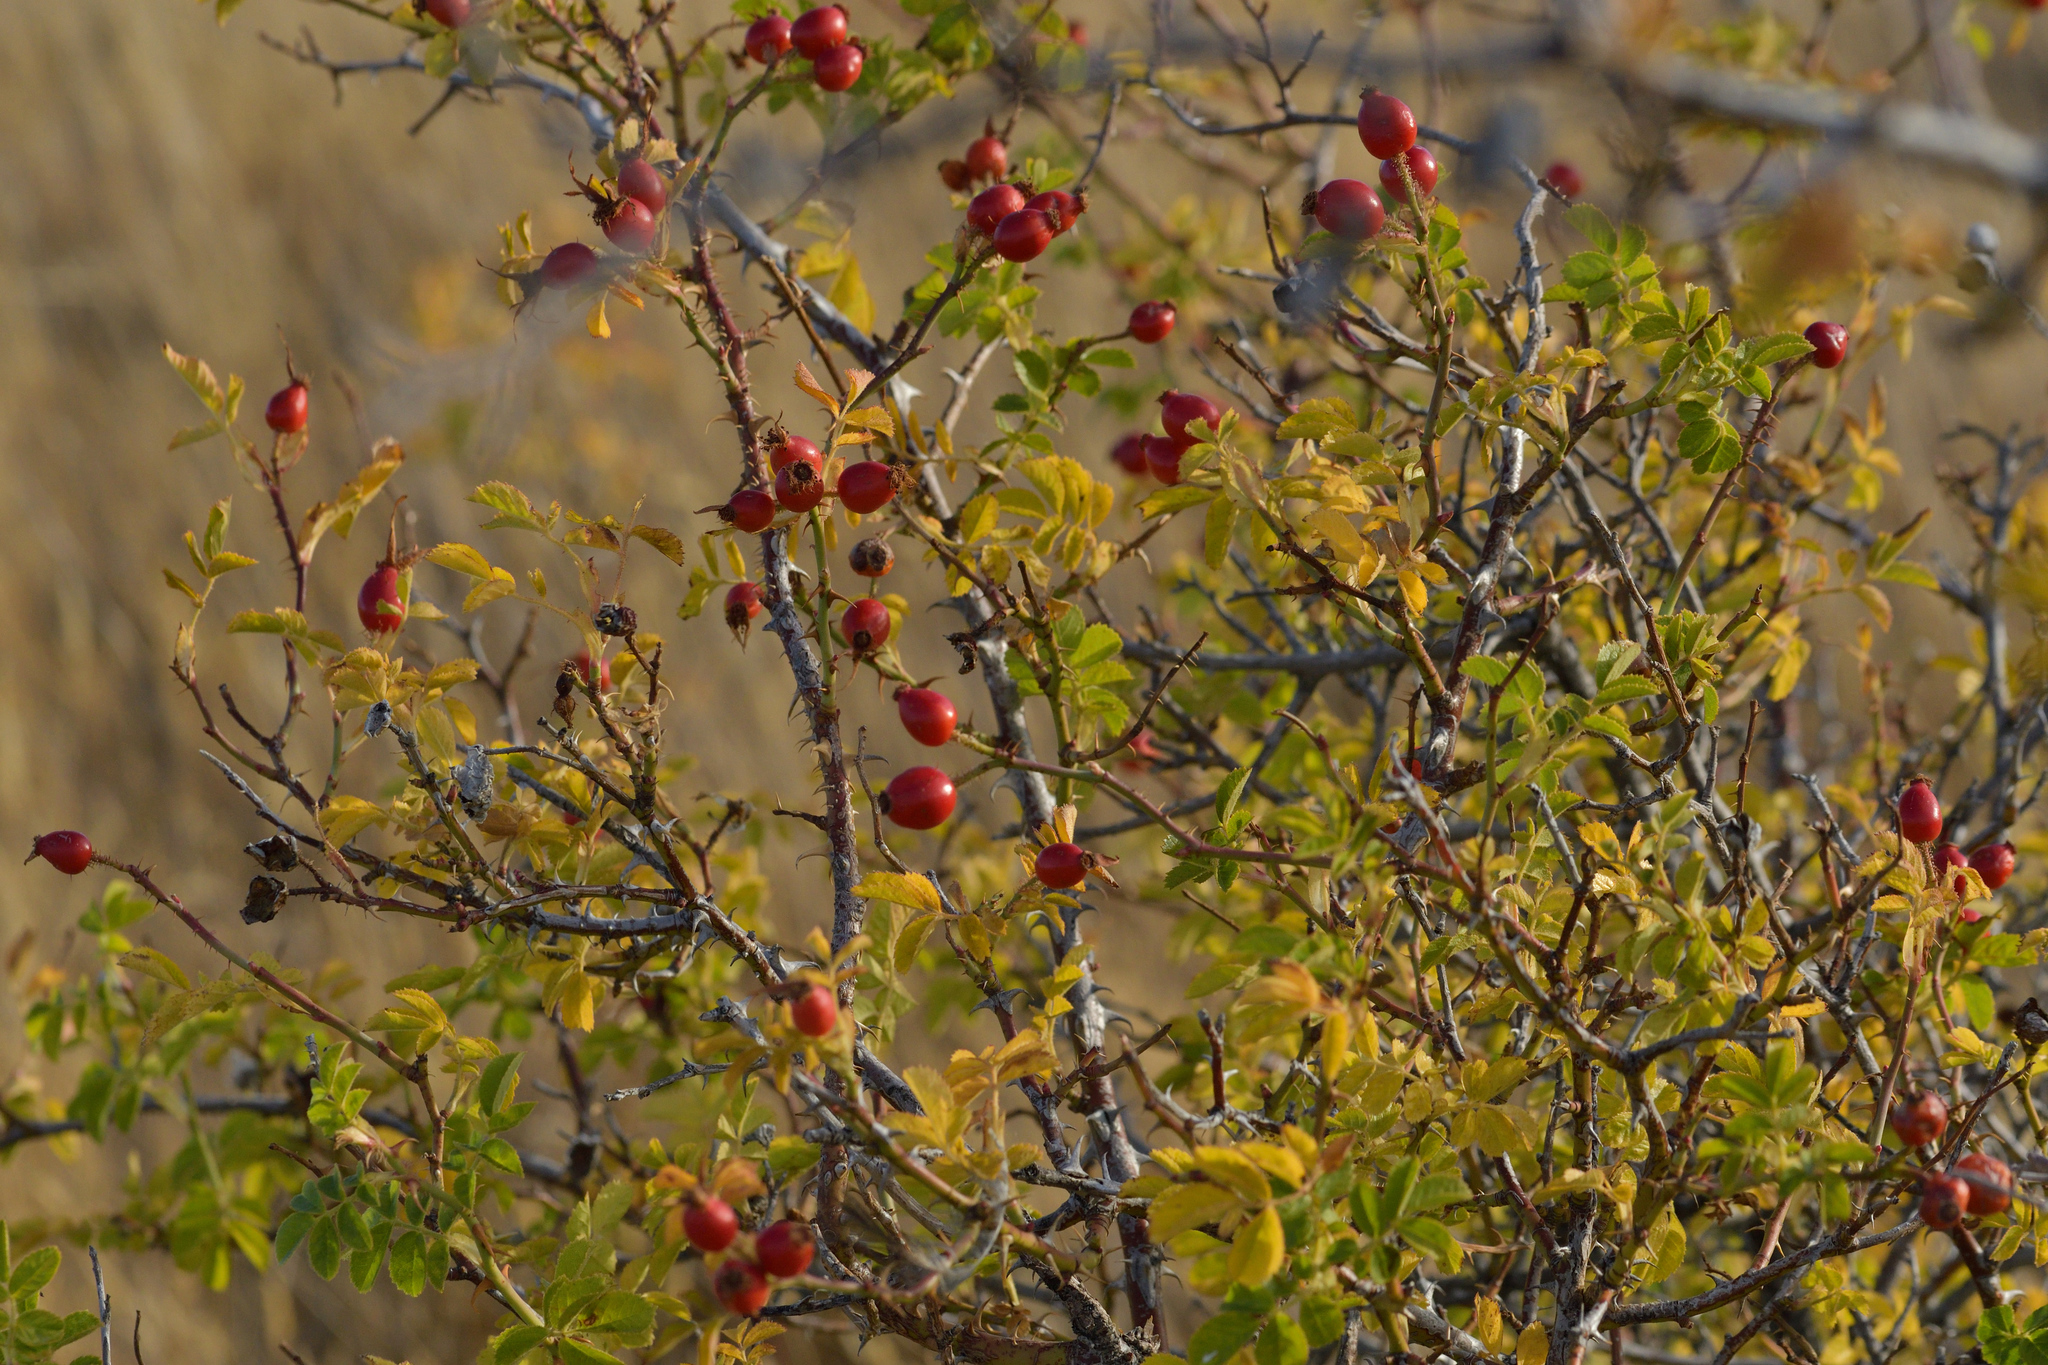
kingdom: Plantae
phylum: Tracheophyta
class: Magnoliopsida
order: Rosales
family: Rosaceae
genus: Rosa
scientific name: Rosa rubiginosa
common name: Sweet-briar
